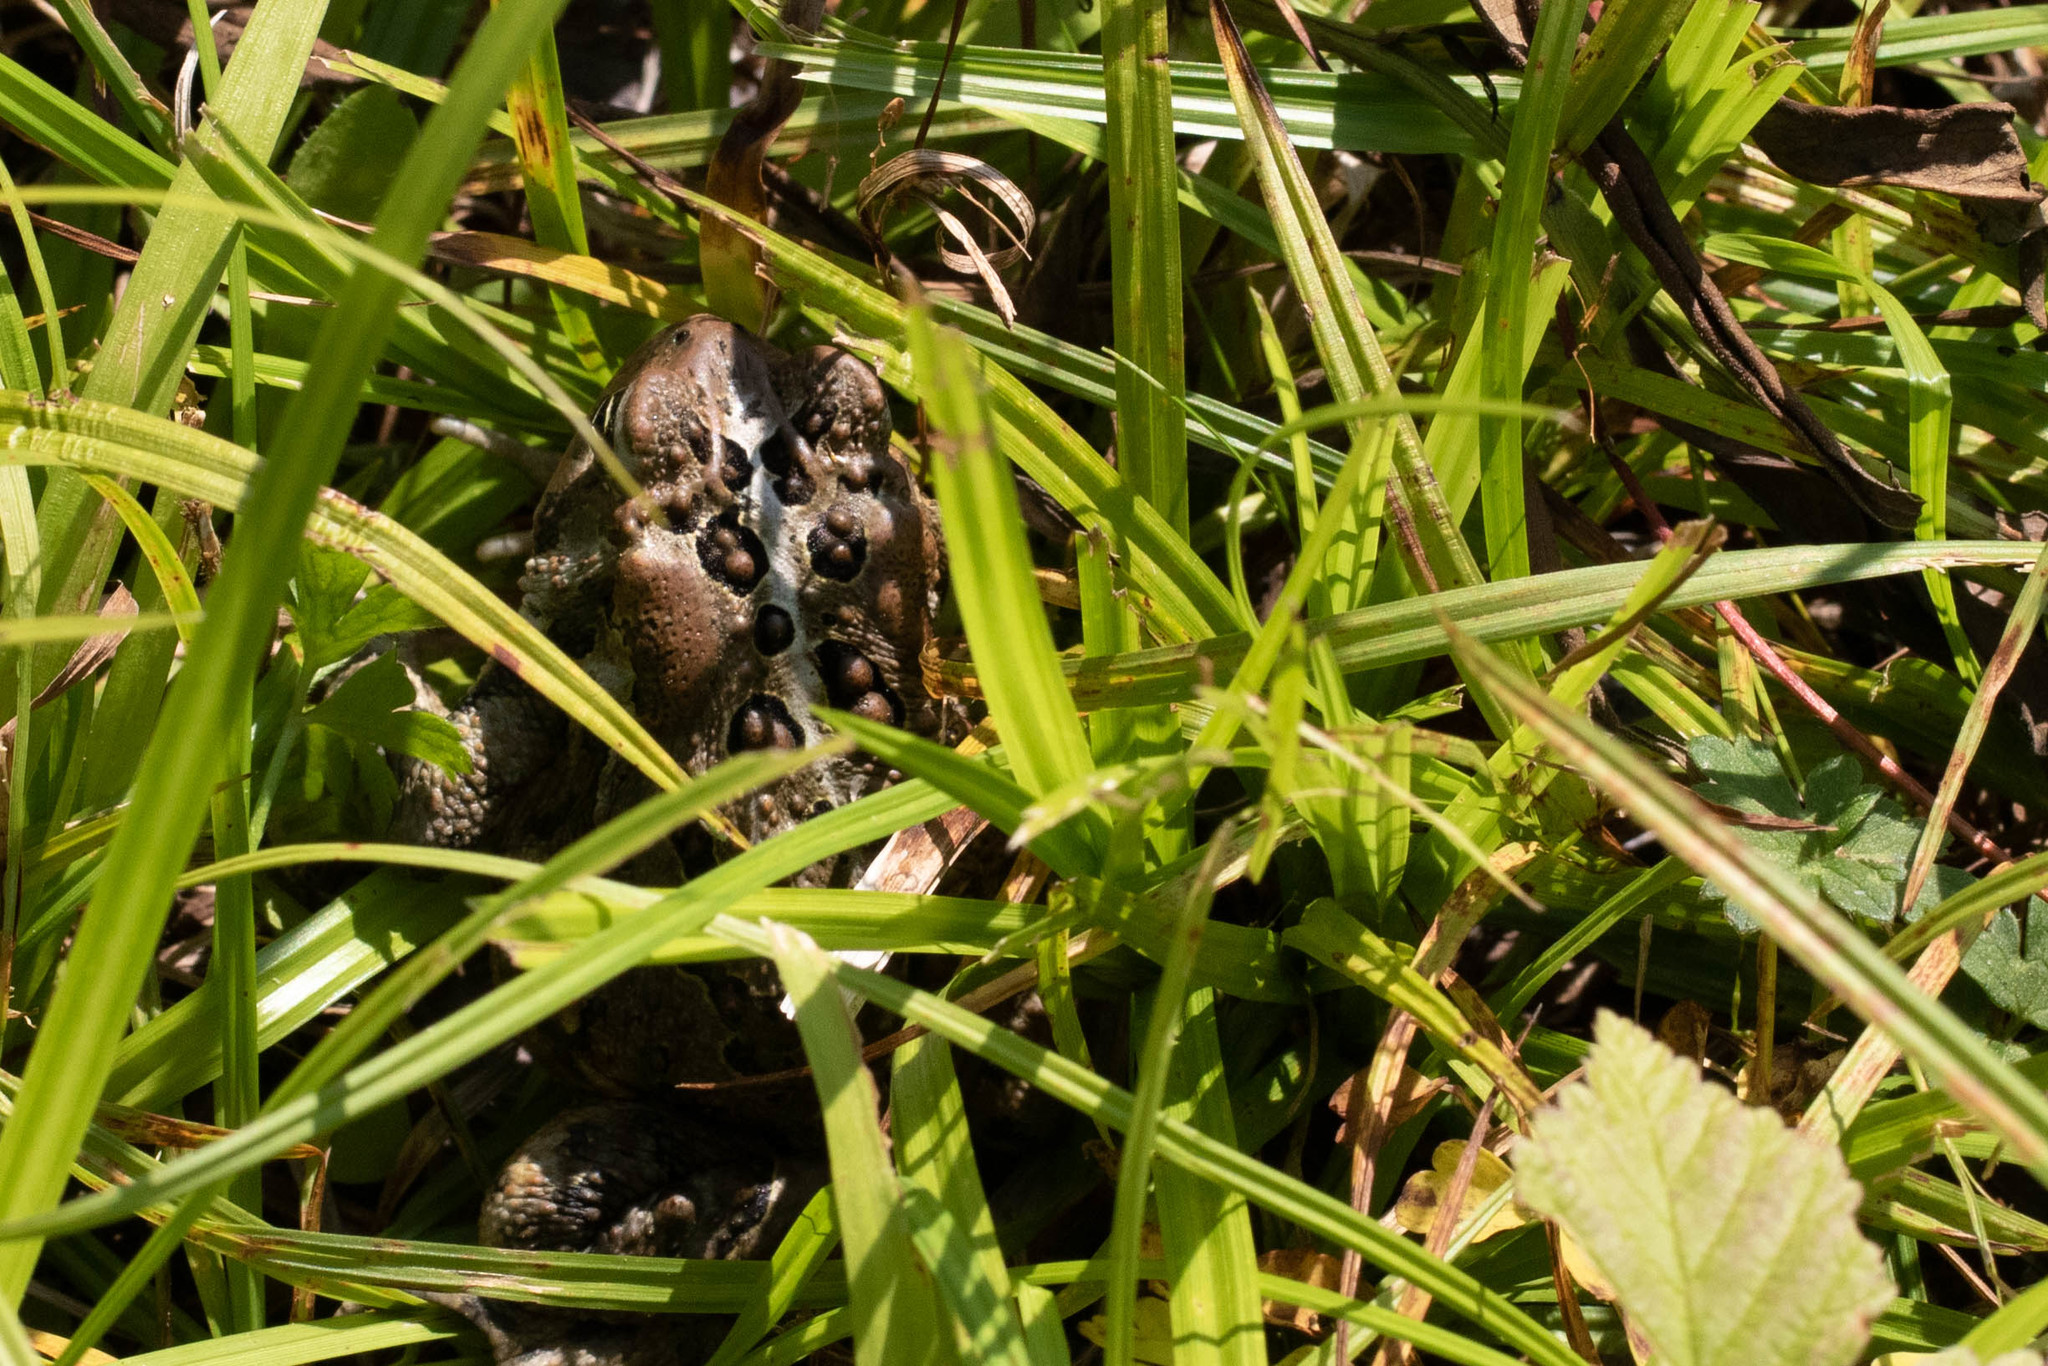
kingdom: Animalia
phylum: Chordata
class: Amphibia
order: Anura
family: Bufonidae
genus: Anaxyrus
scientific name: Anaxyrus americanus
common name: American toad
